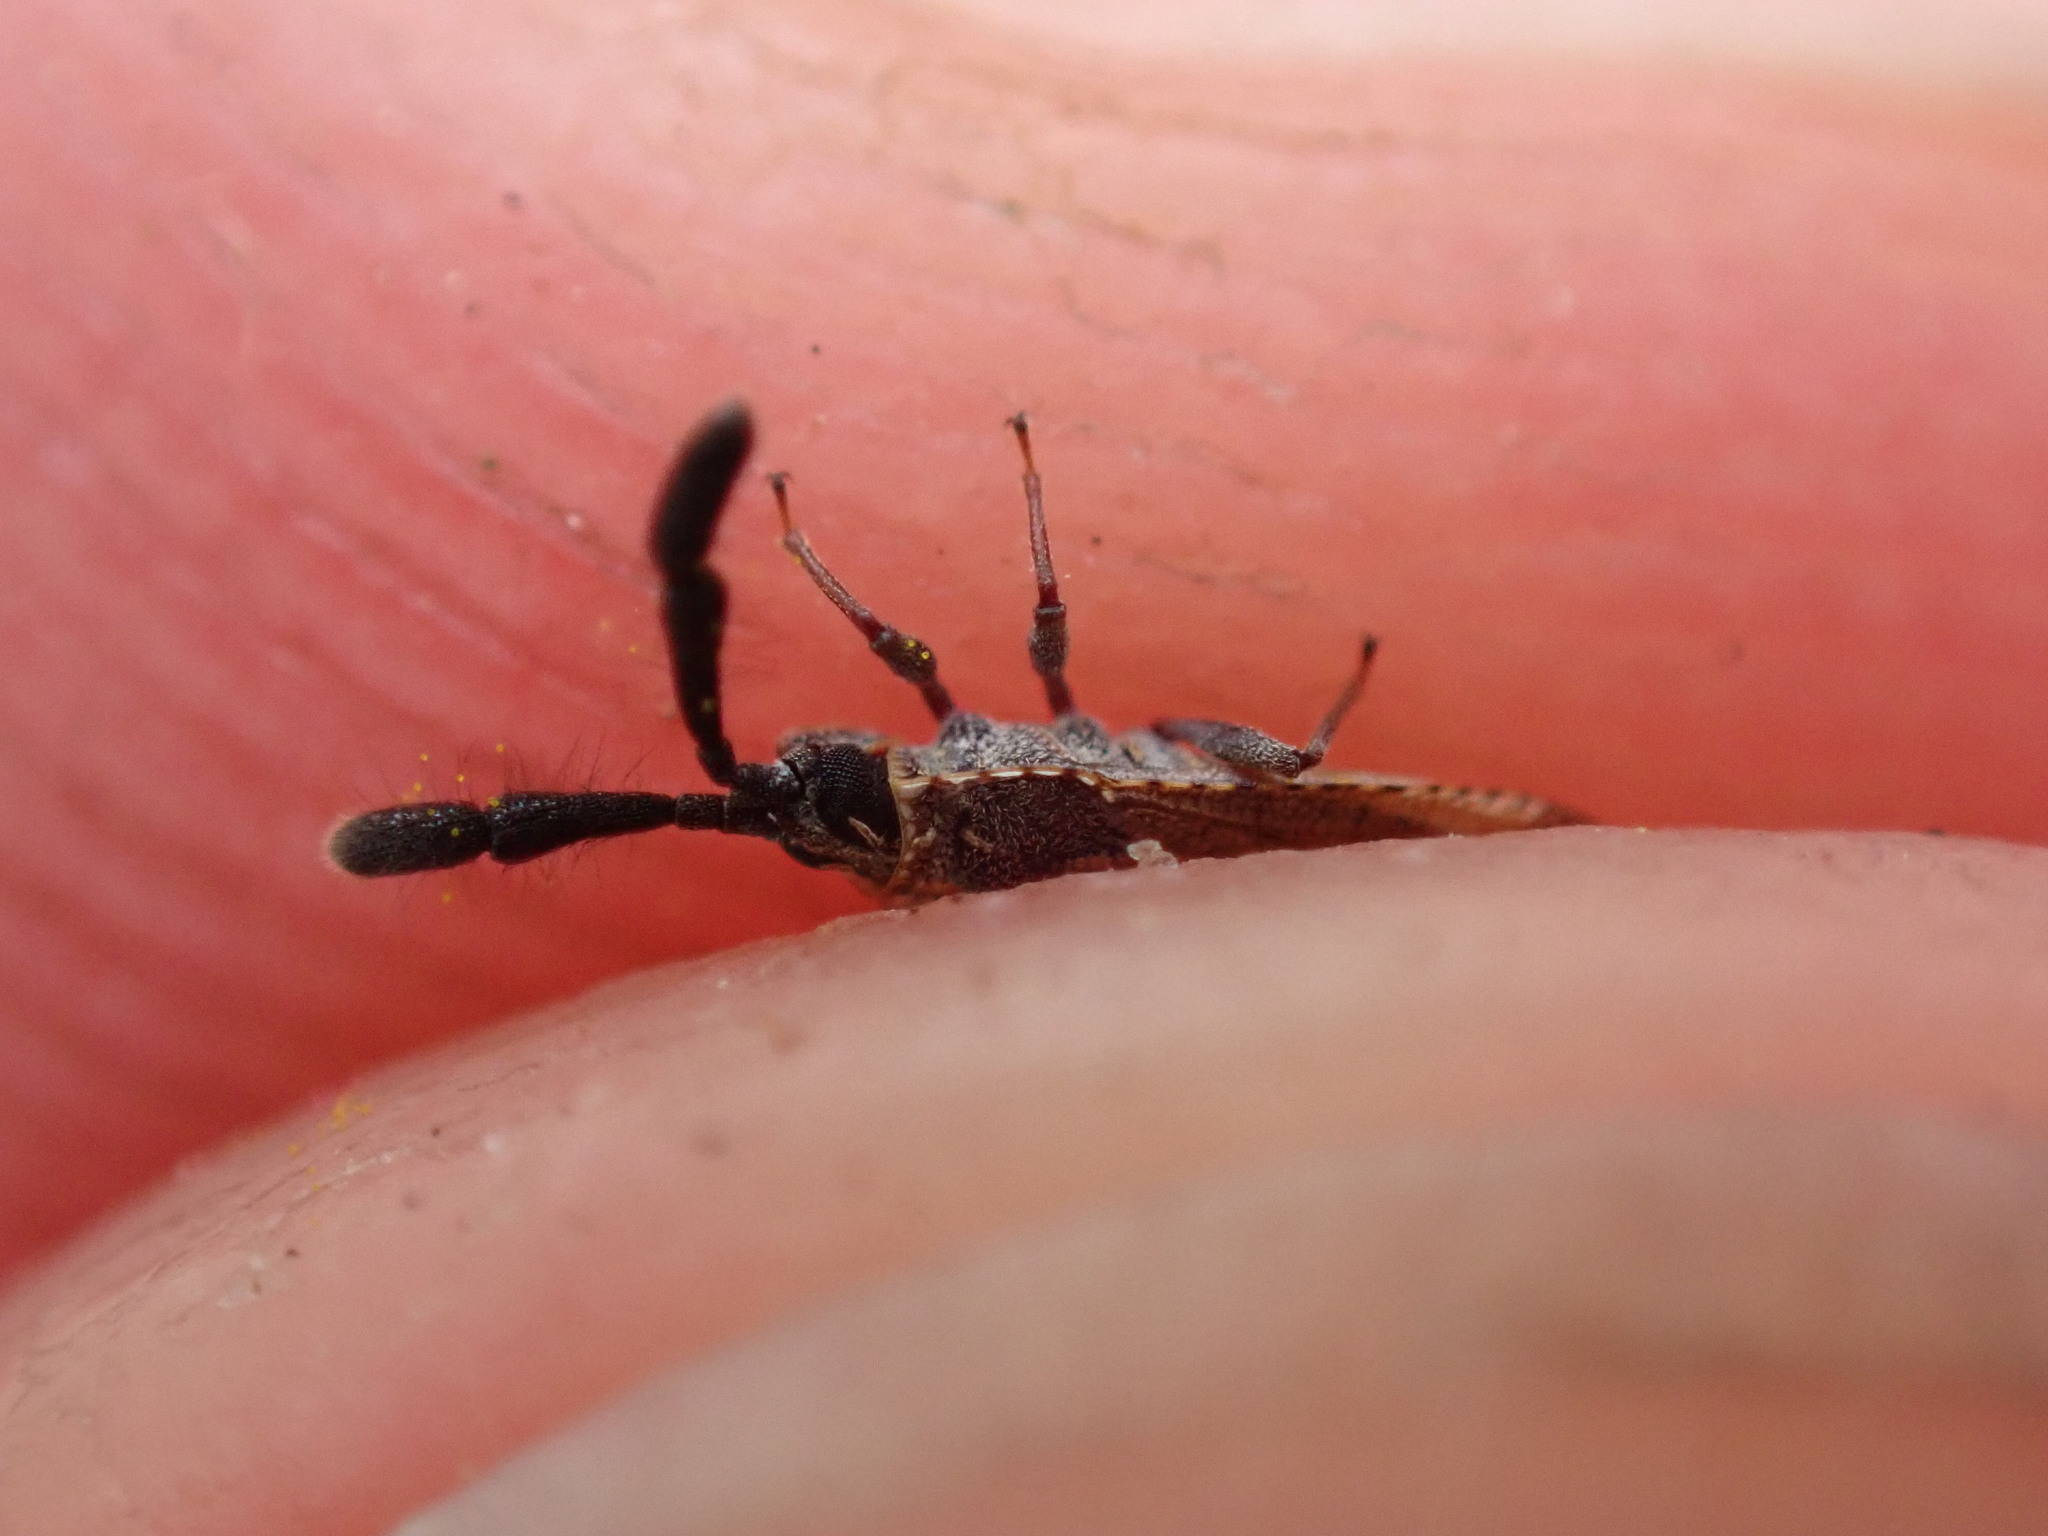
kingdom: Animalia
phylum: Arthropoda
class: Insecta
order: Hemiptera
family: Tingidae
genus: Copium
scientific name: Copium clavicorne
